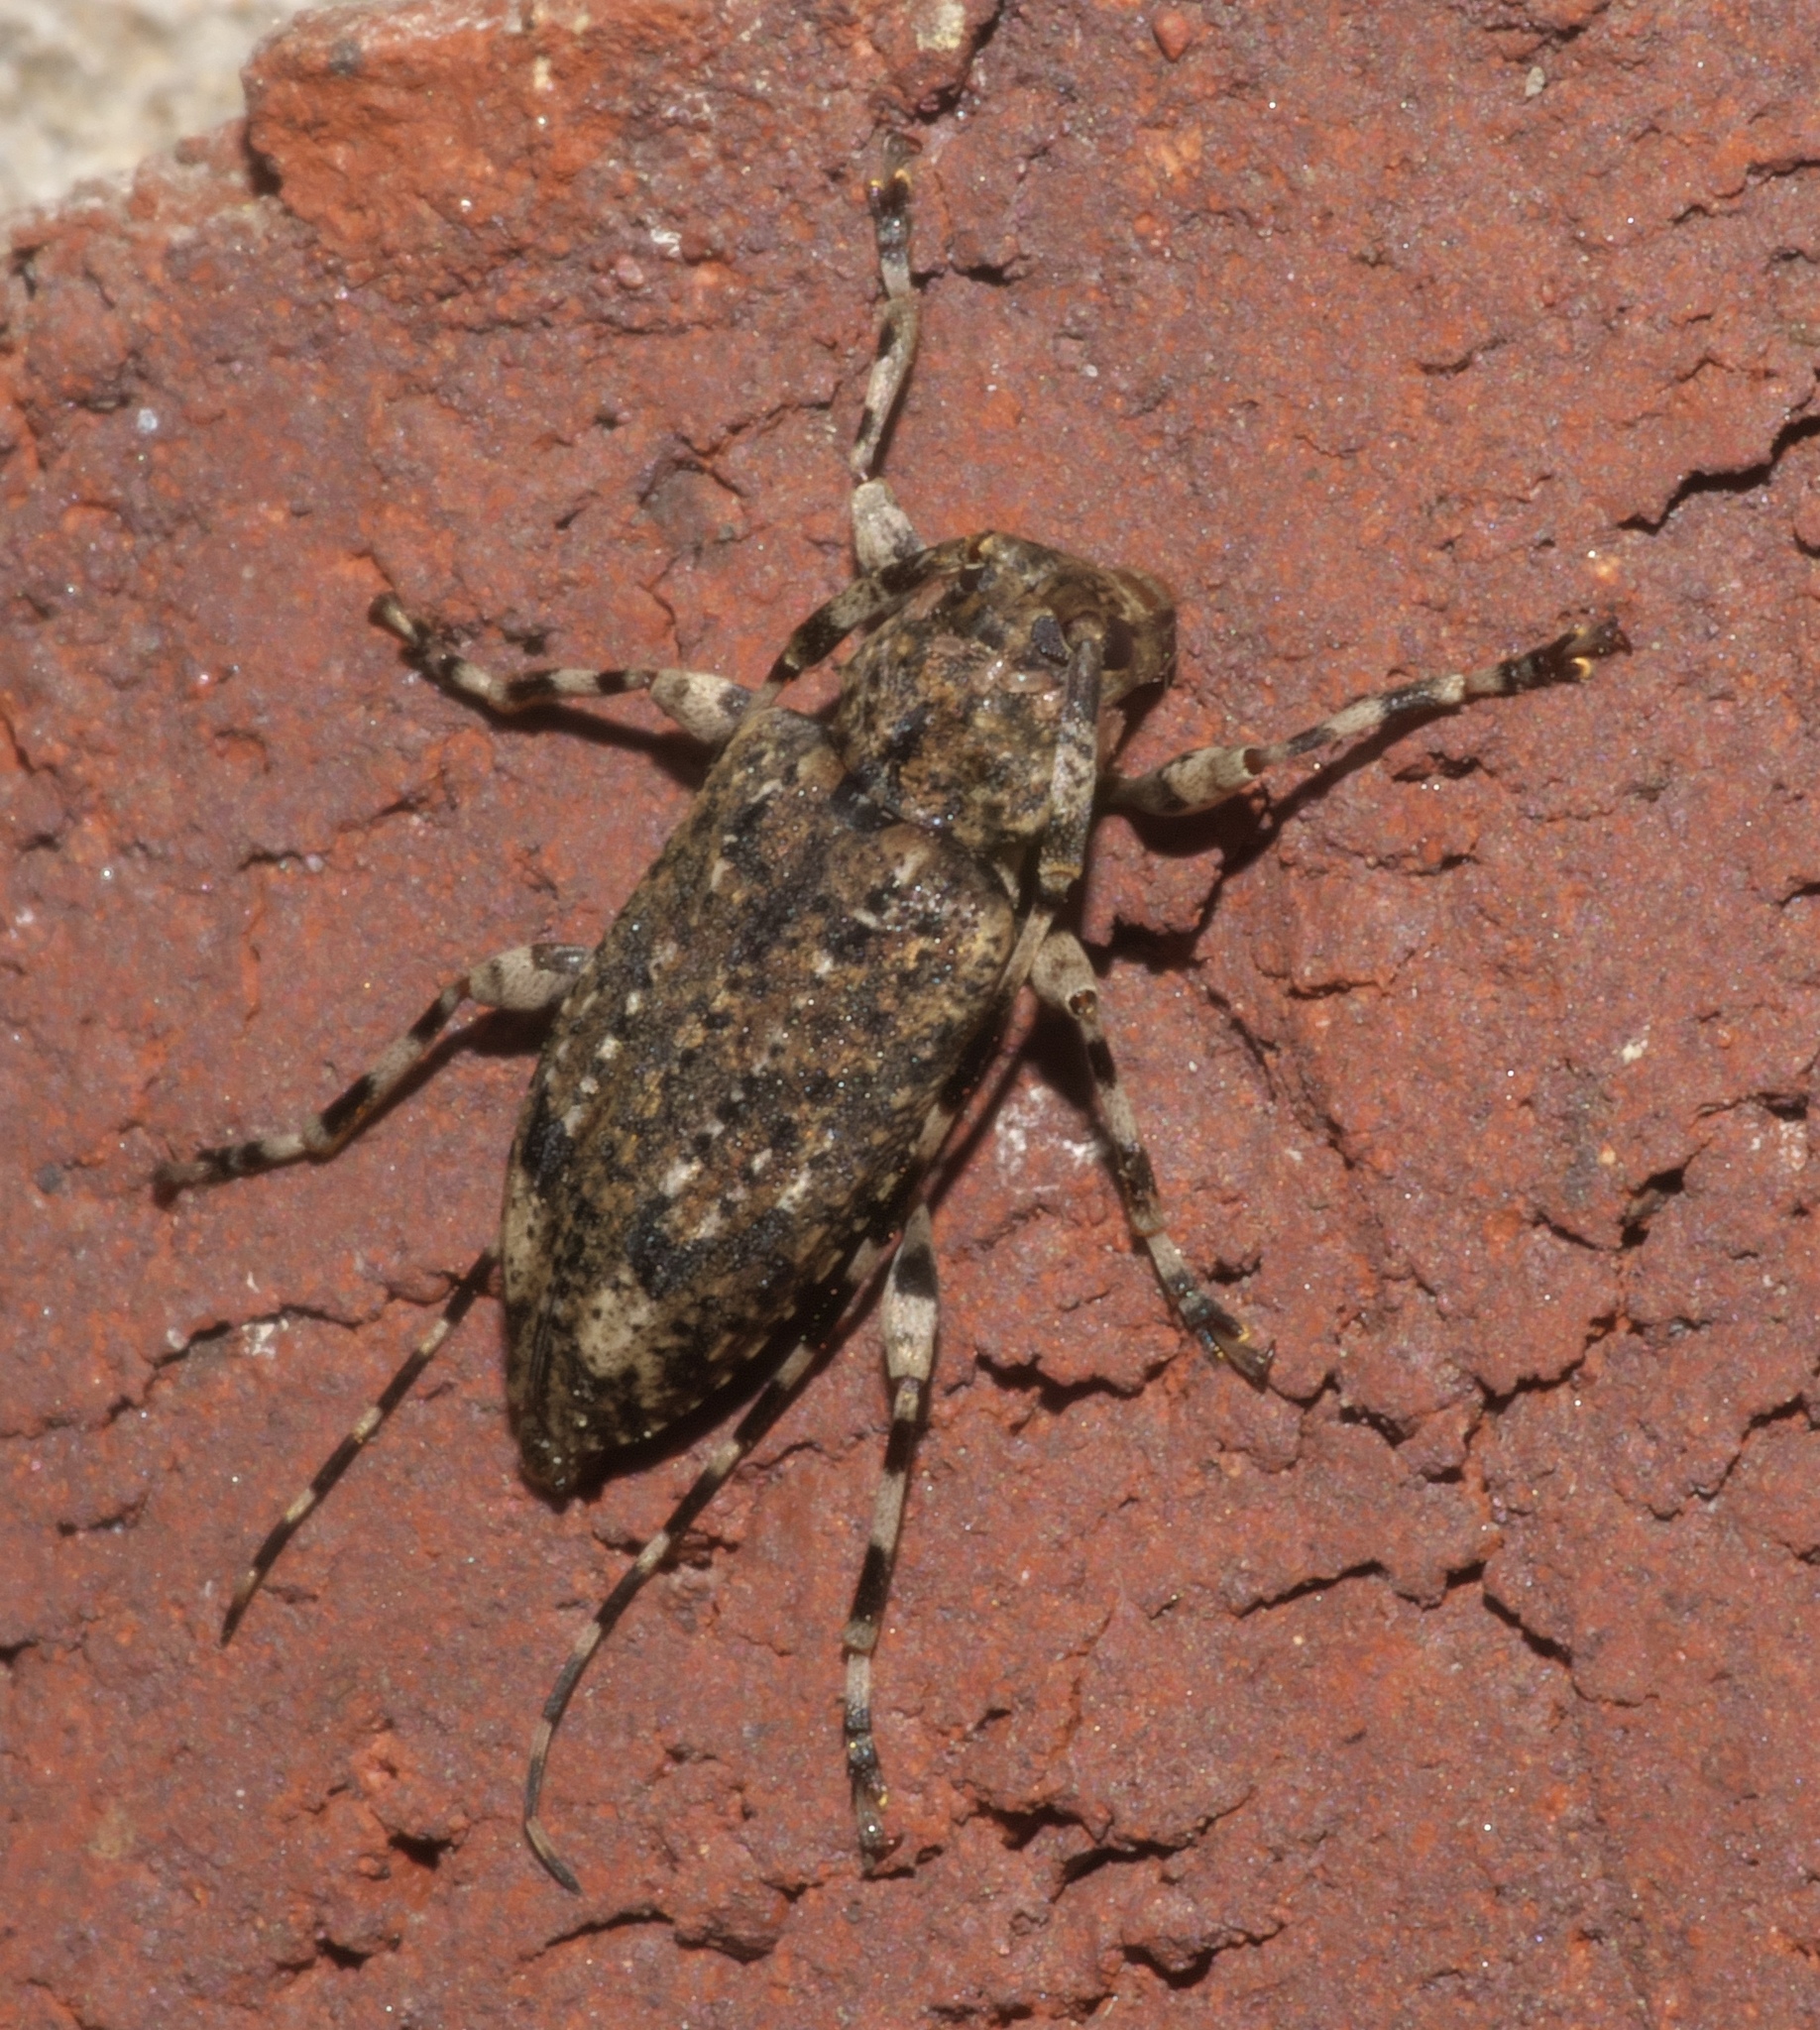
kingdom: Animalia
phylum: Arthropoda
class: Insecta
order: Coleoptera
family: Cerambycidae
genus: Astyleiopus
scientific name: Astyleiopus variegatus
